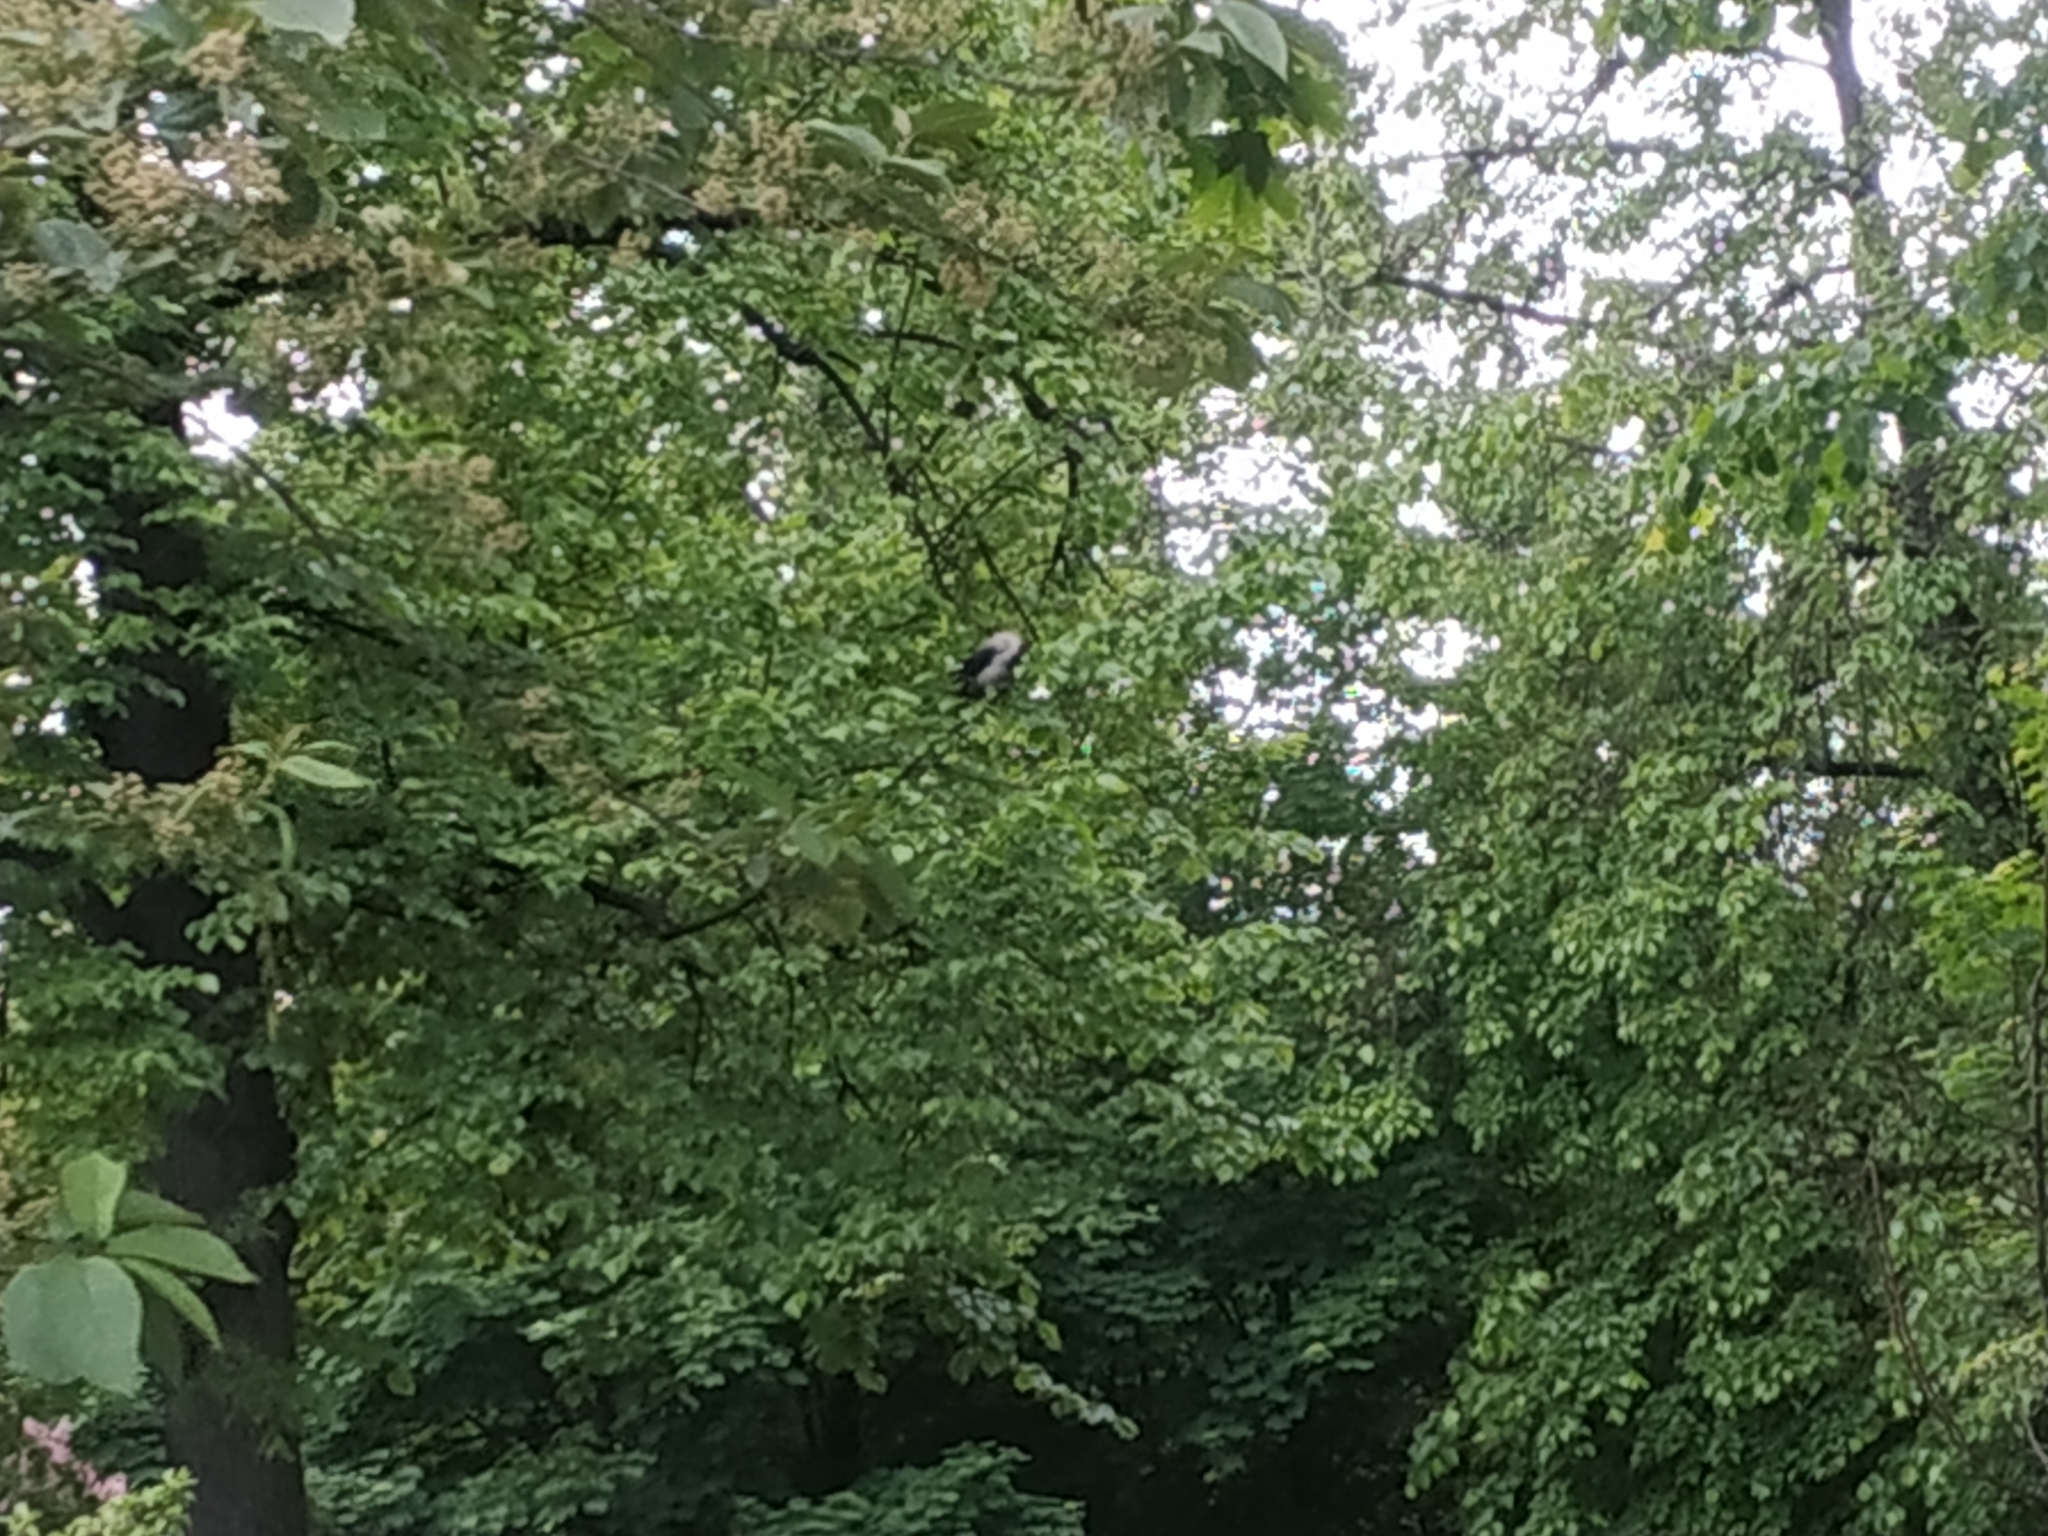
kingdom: Animalia
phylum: Chordata
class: Aves
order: Passeriformes
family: Corvidae
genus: Corvus
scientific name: Corvus cornix
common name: Hooded crow
